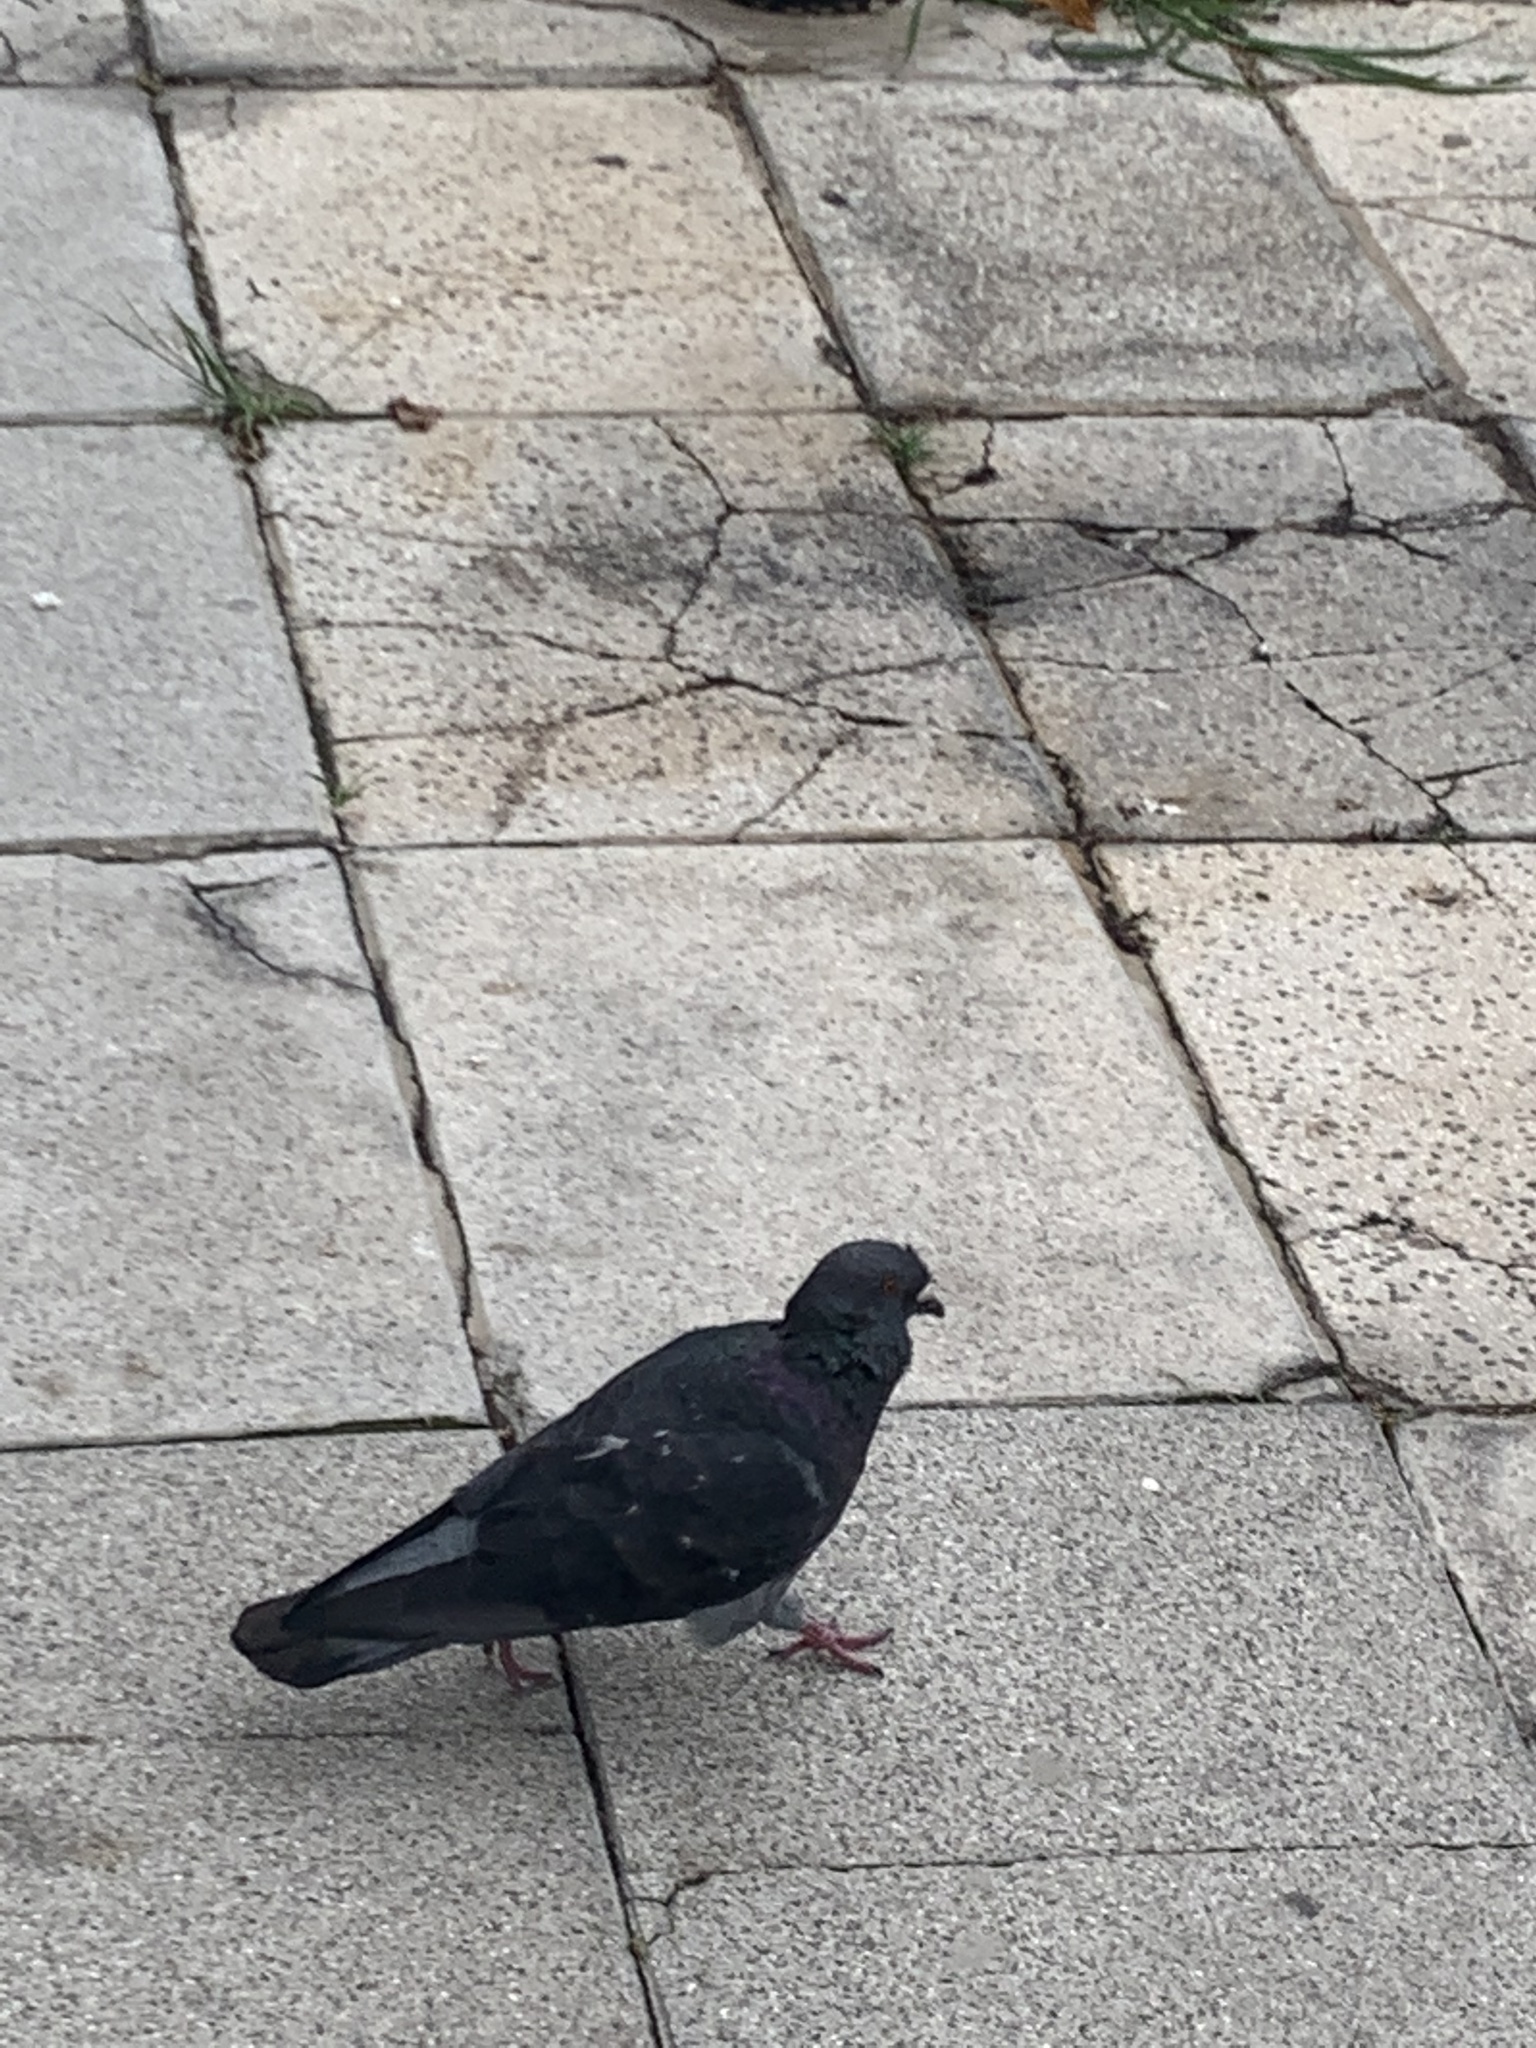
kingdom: Animalia
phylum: Chordata
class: Aves
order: Columbiformes
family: Columbidae
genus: Columba
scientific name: Columba livia
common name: Rock pigeon
